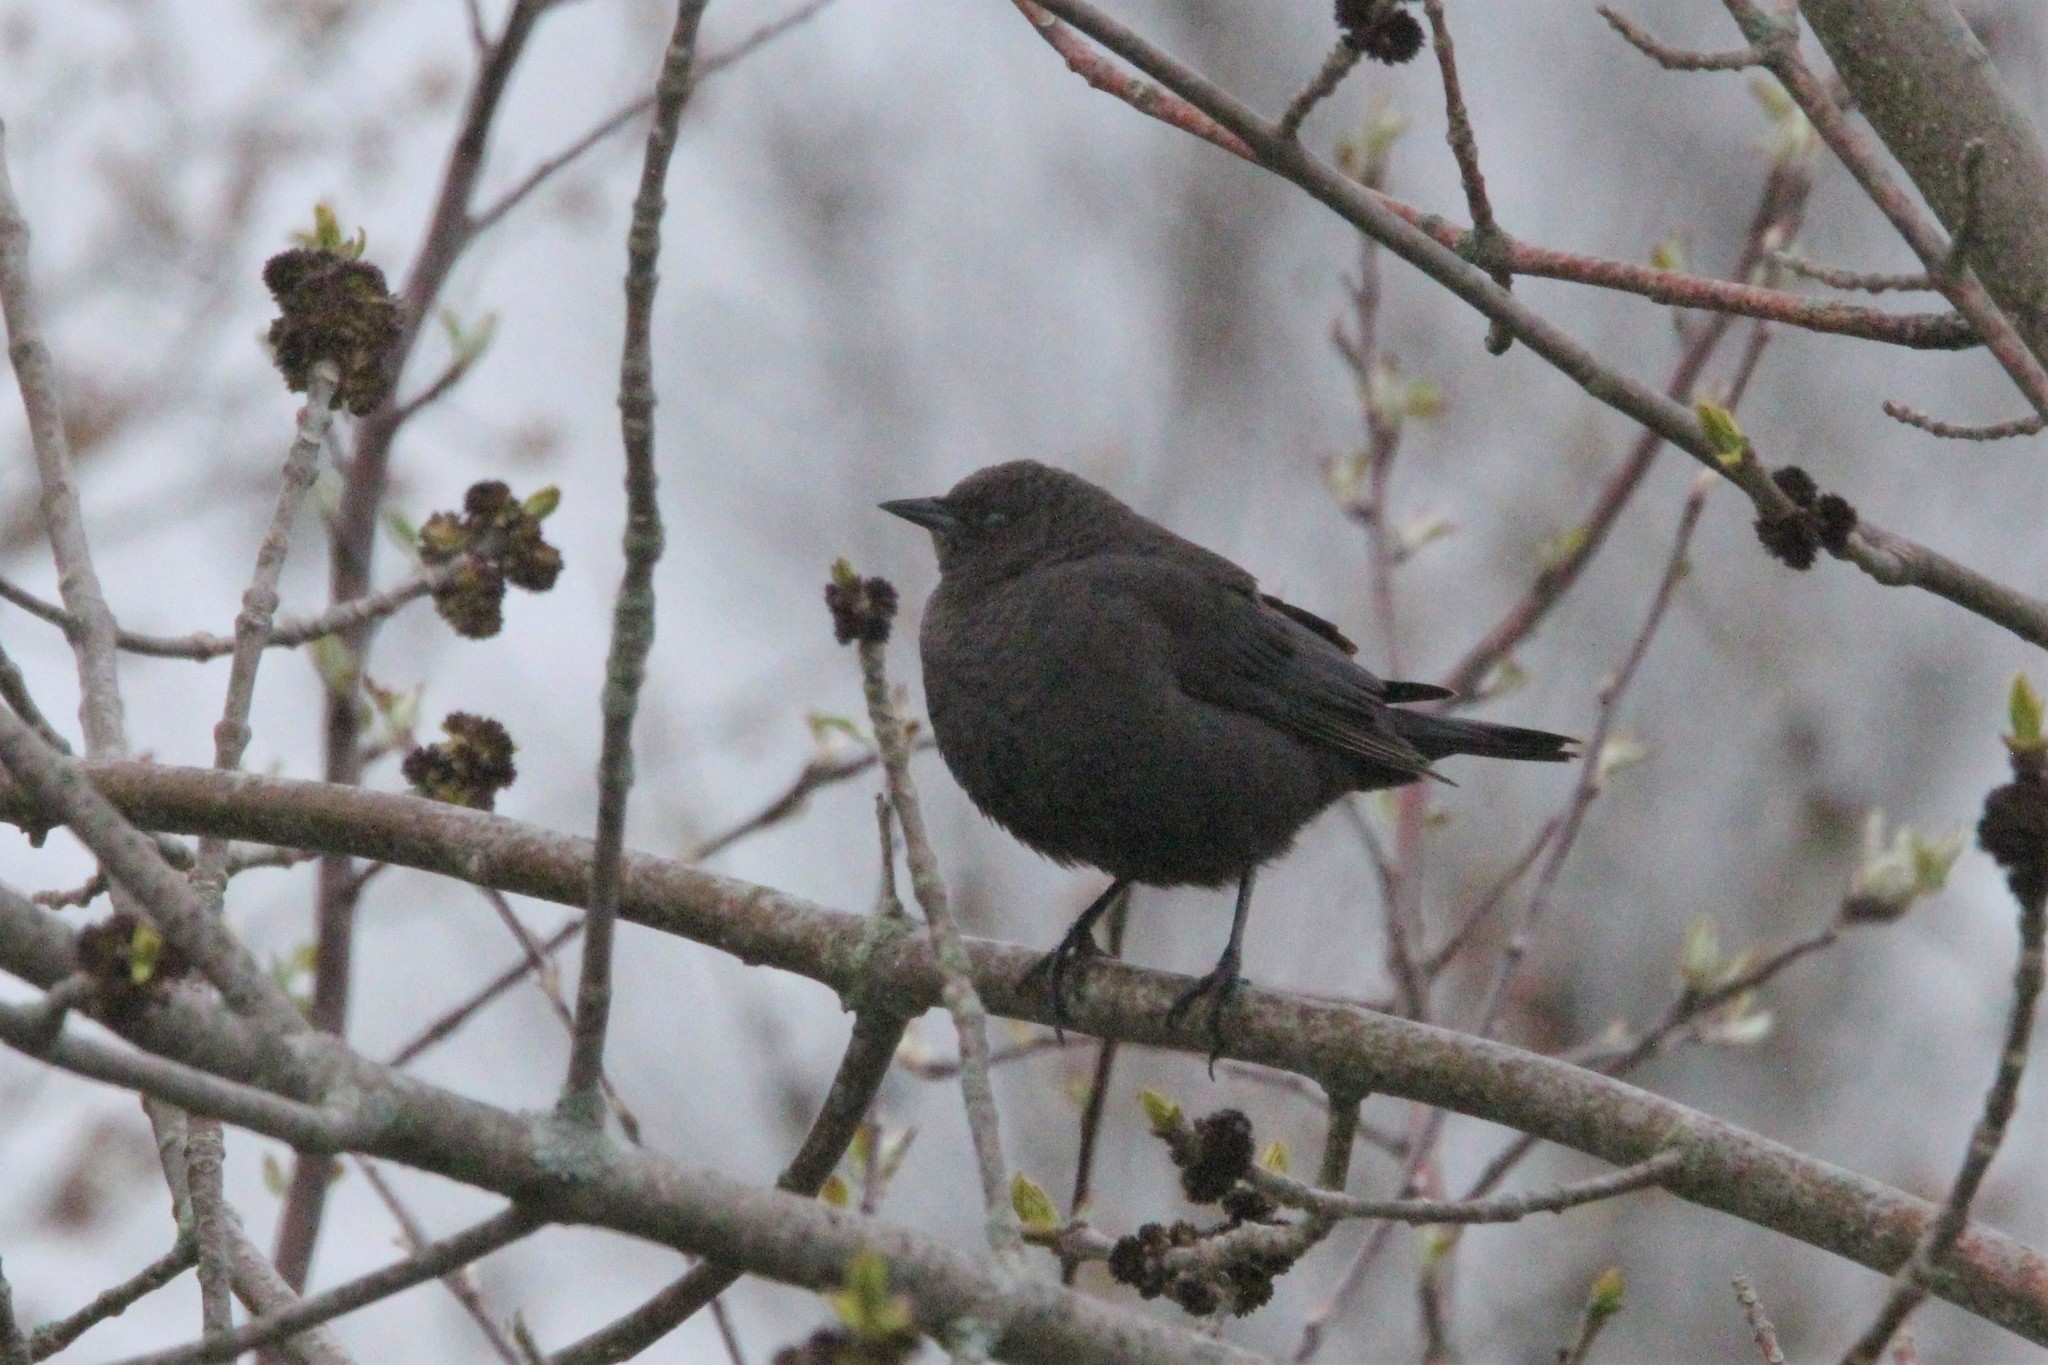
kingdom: Animalia
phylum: Chordata
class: Aves
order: Passeriformes
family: Icteridae
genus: Euphagus
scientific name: Euphagus cyanocephalus
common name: Brewer's blackbird
